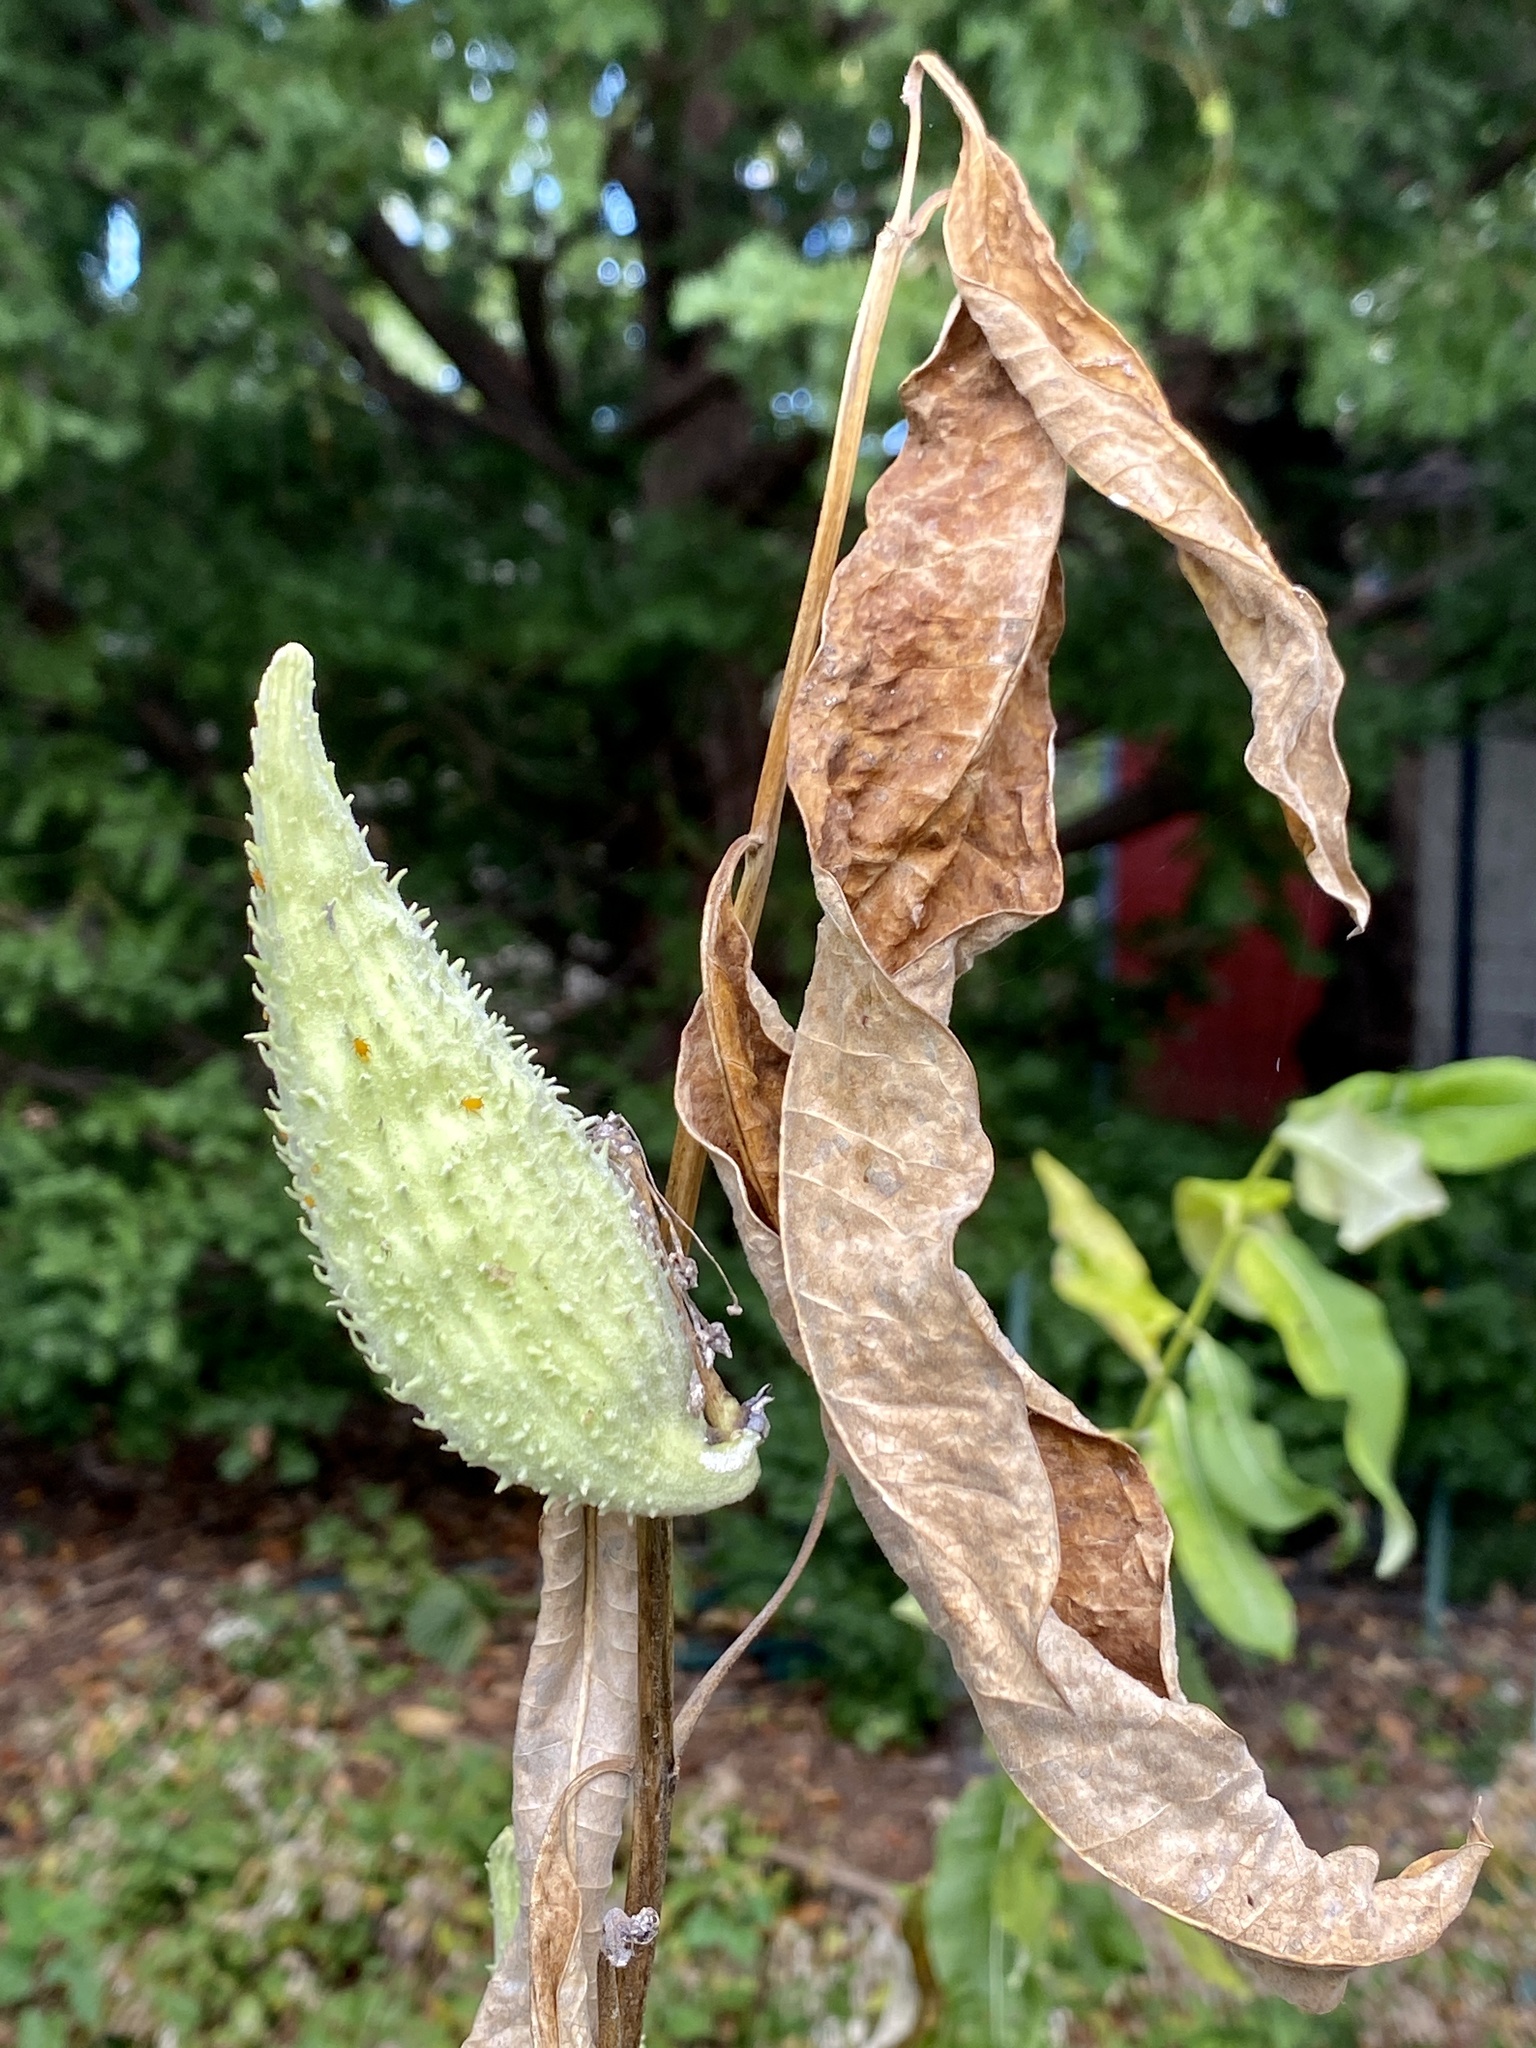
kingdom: Plantae
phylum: Tracheophyta
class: Magnoliopsida
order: Gentianales
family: Apocynaceae
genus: Asclepias
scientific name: Asclepias syriaca
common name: Common milkweed
